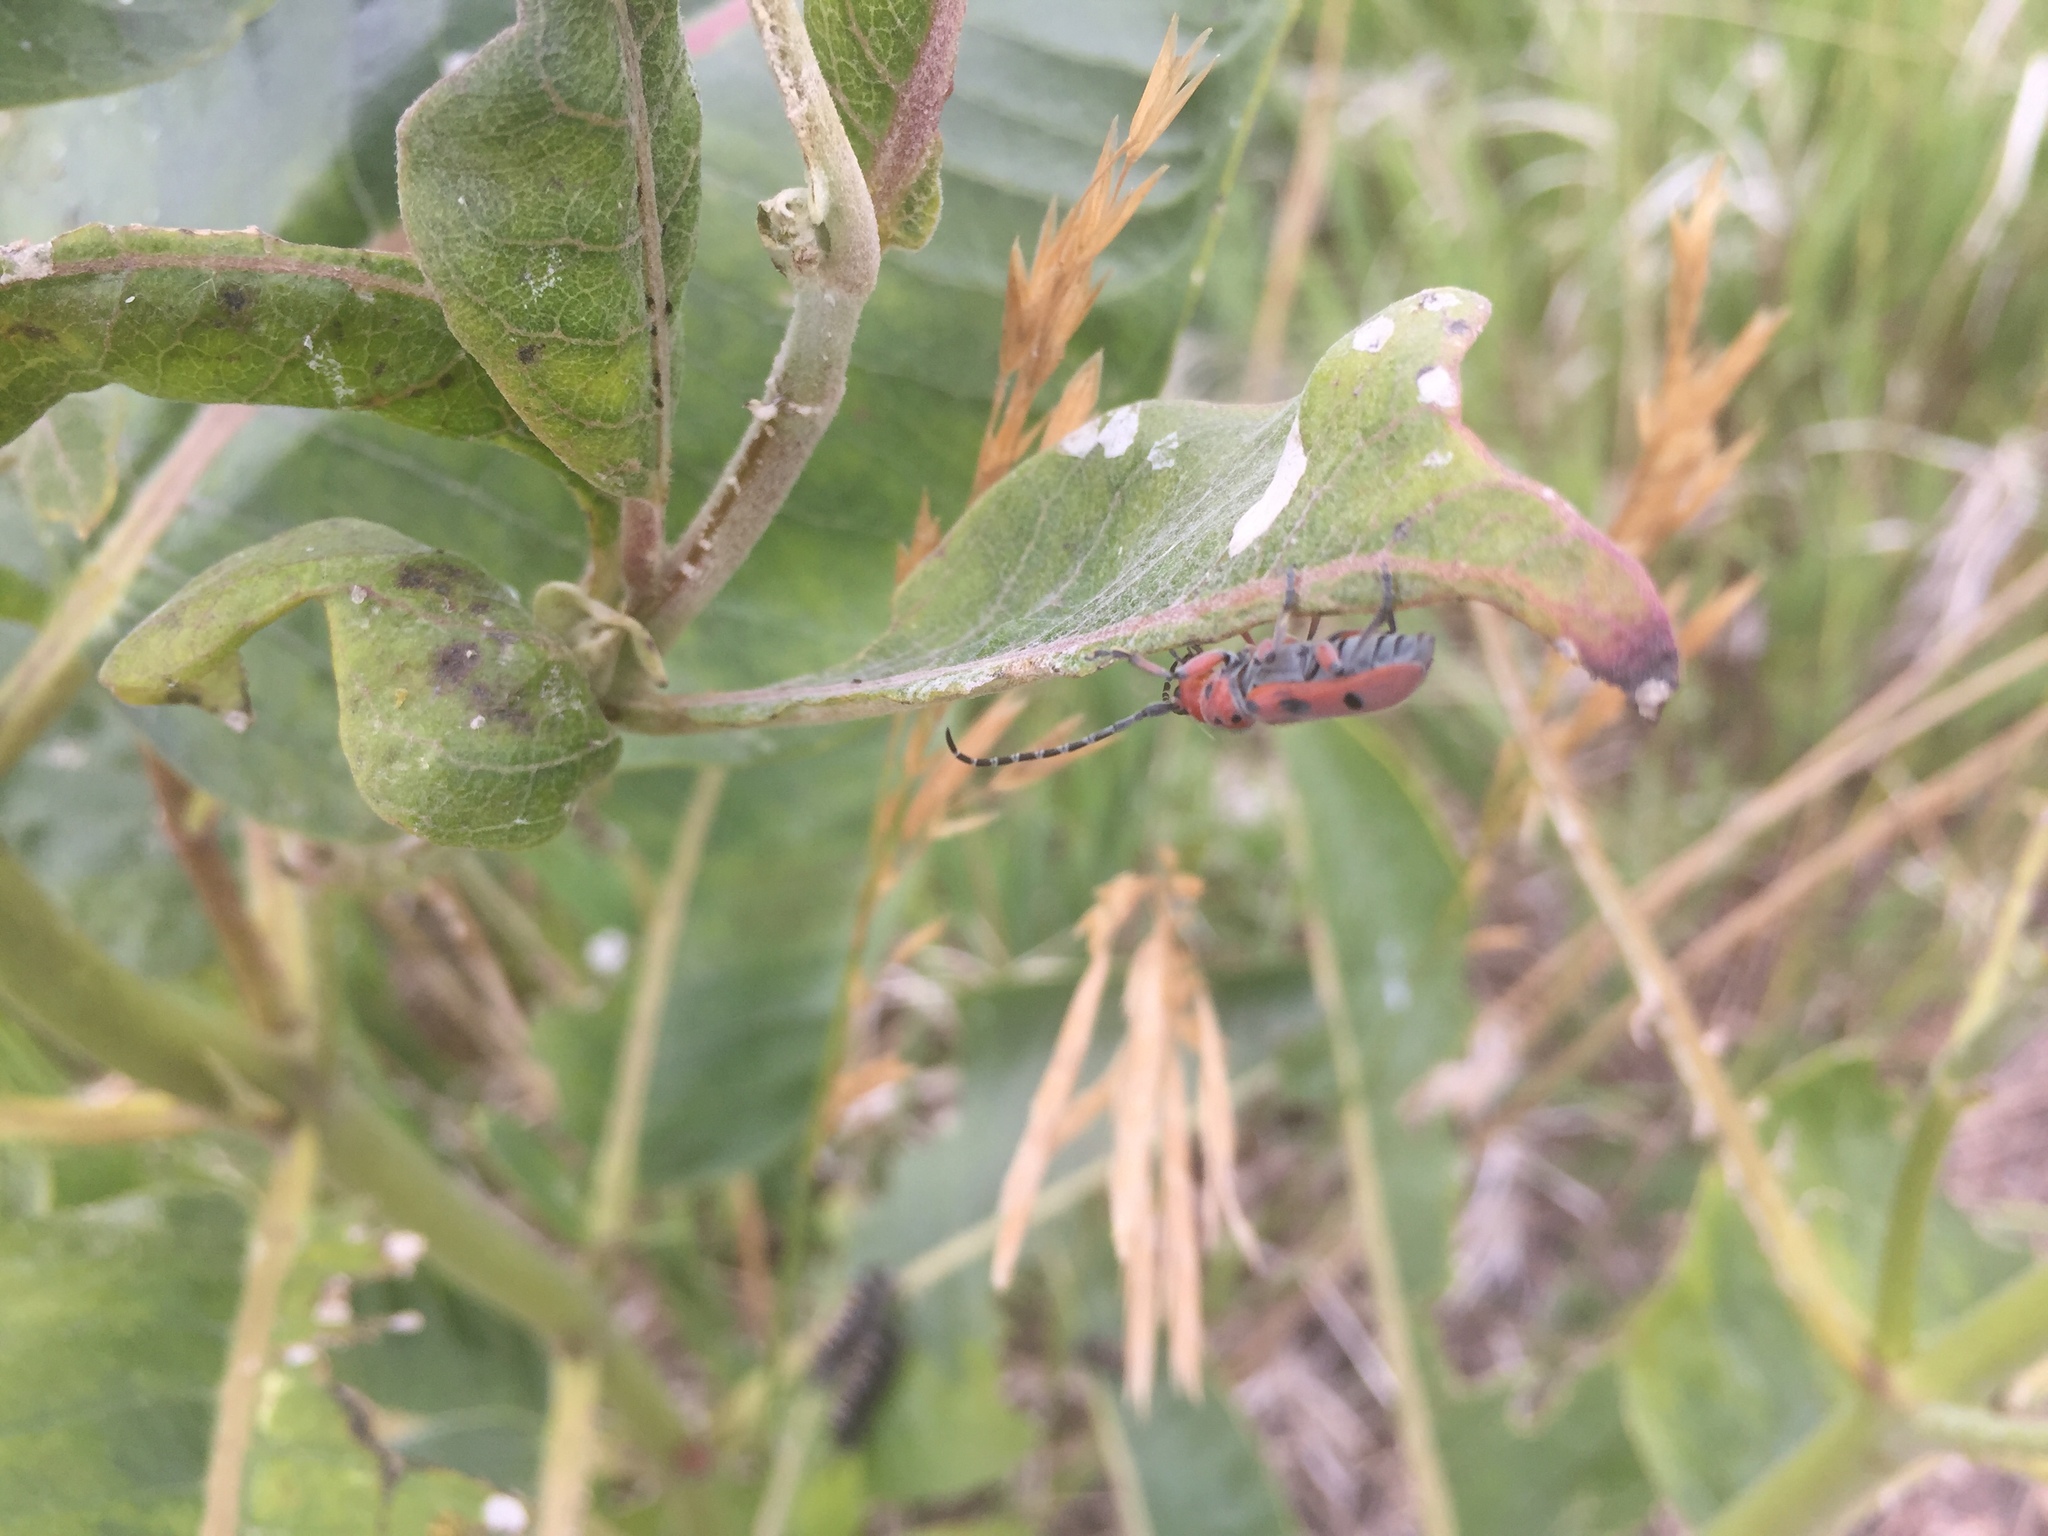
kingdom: Animalia
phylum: Arthropoda
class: Insecta
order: Coleoptera
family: Cerambycidae
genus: Tetraopes
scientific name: Tetraopes femoratus
